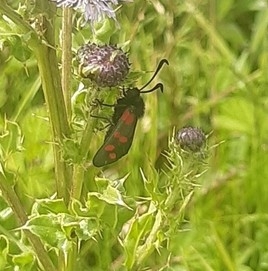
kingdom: Animalia
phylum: Arthropoda
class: Insecta
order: Lepidoptera
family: Zygaenidae
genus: Zygaena
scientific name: Zygaena filipendulae
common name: Six-spot burnet
